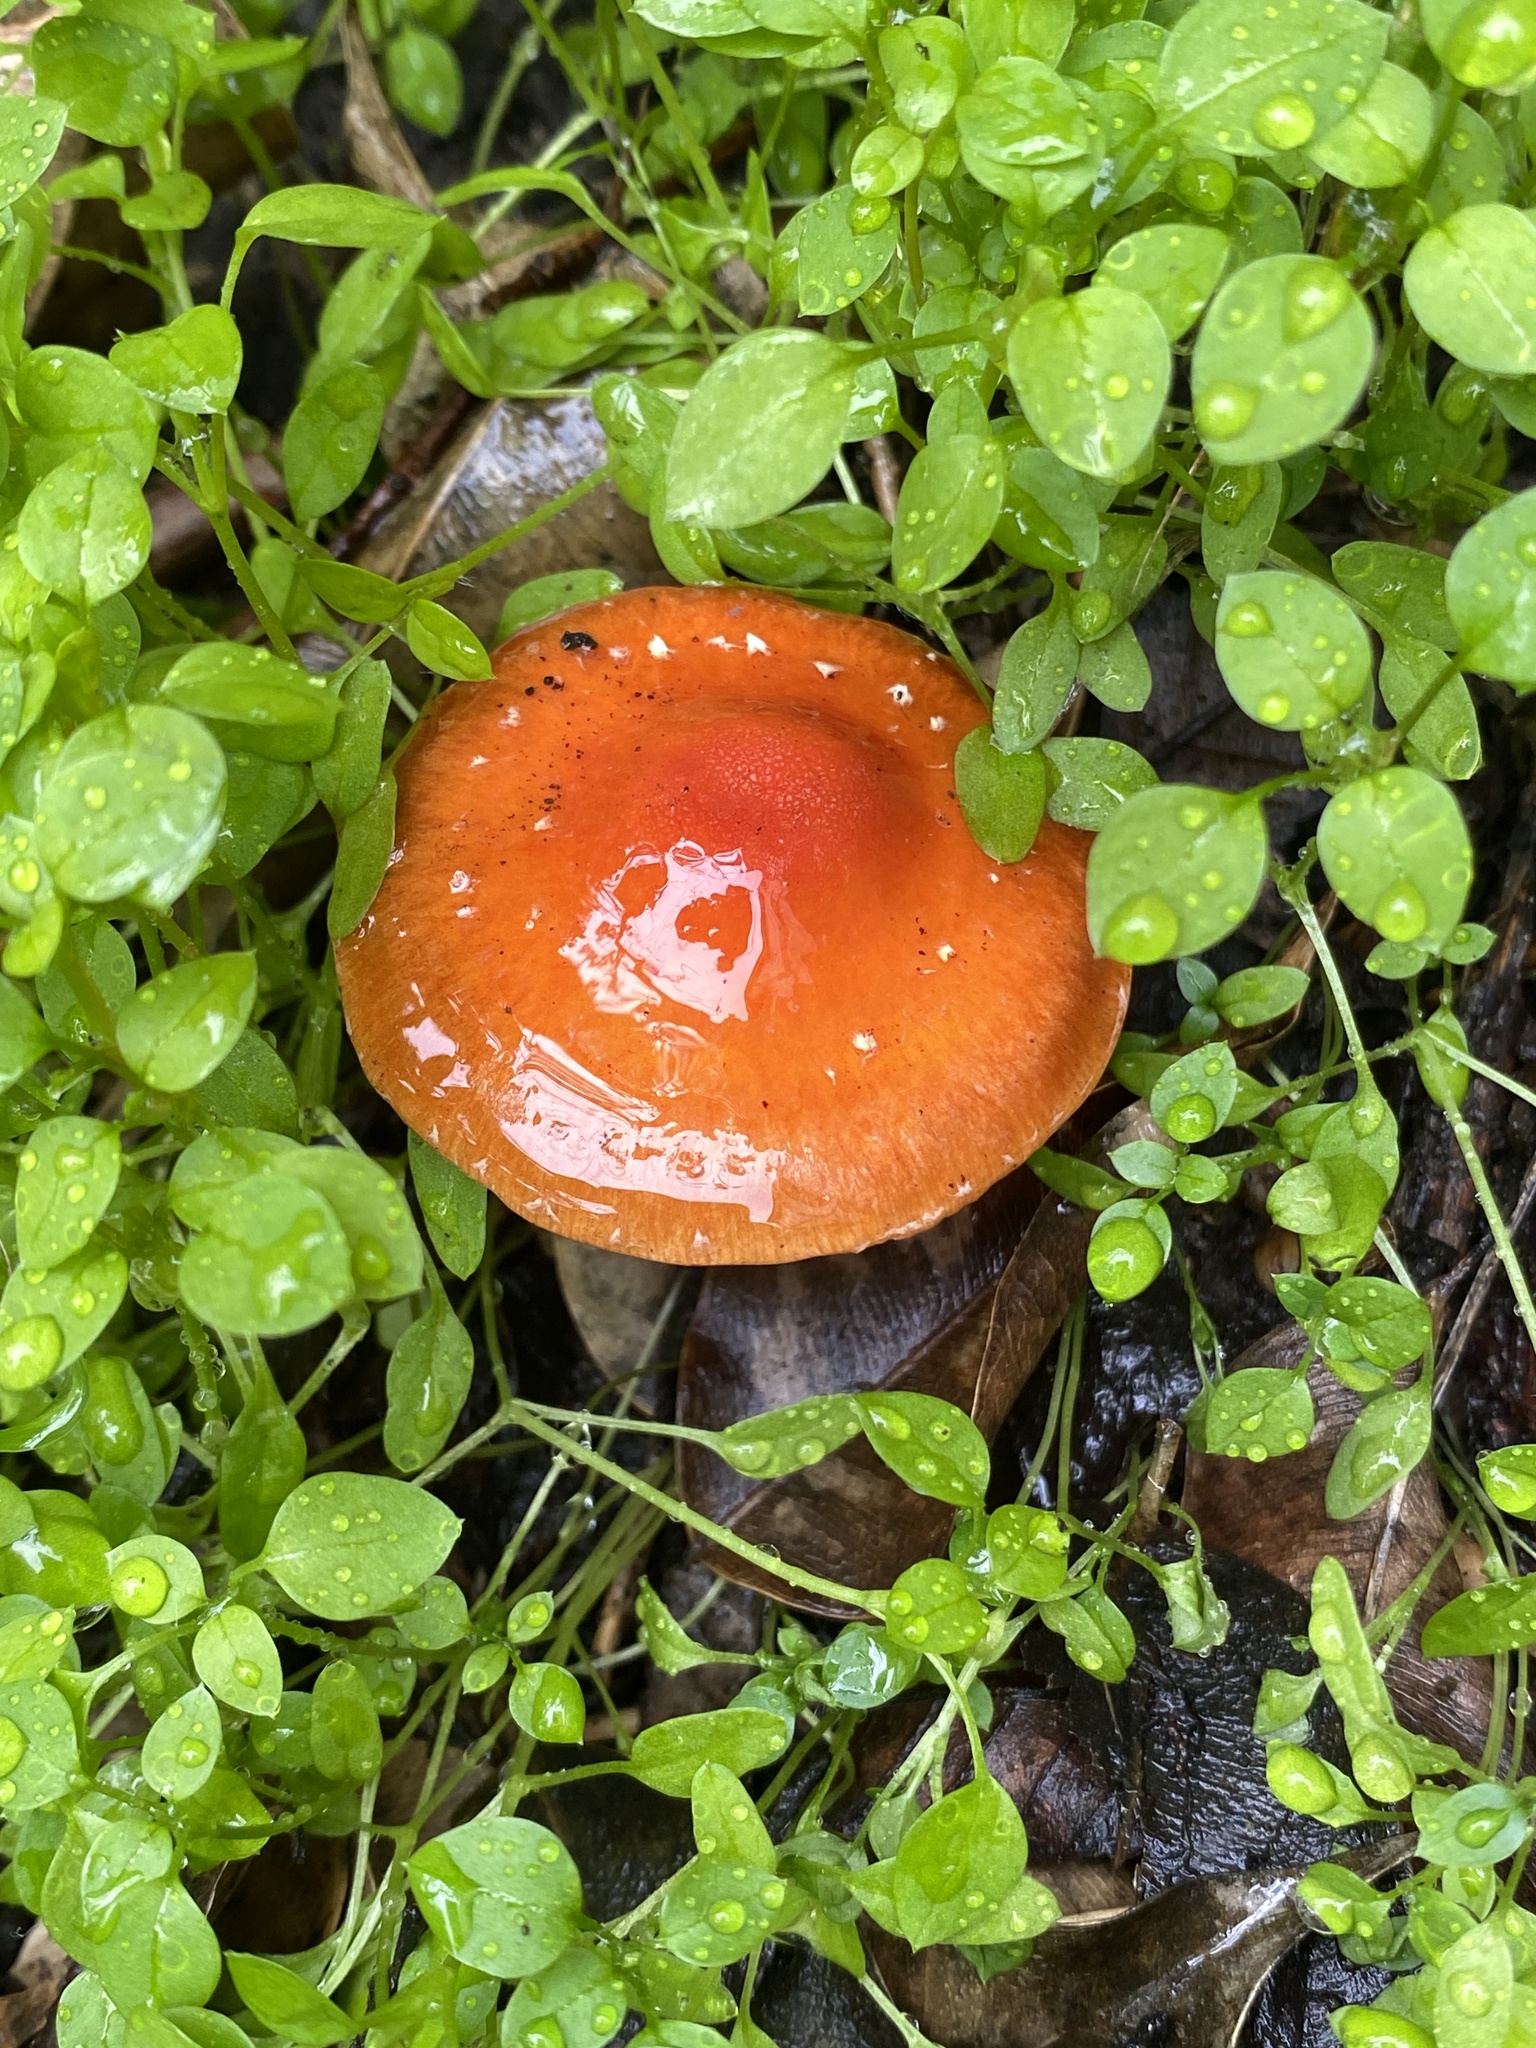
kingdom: Fungi
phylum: Basidiomycota
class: Agaricomycetes
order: Agaricales
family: Strophariaceae
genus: Leratiomyces
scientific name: Leratiomyces ceres
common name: Redlead roundhead
